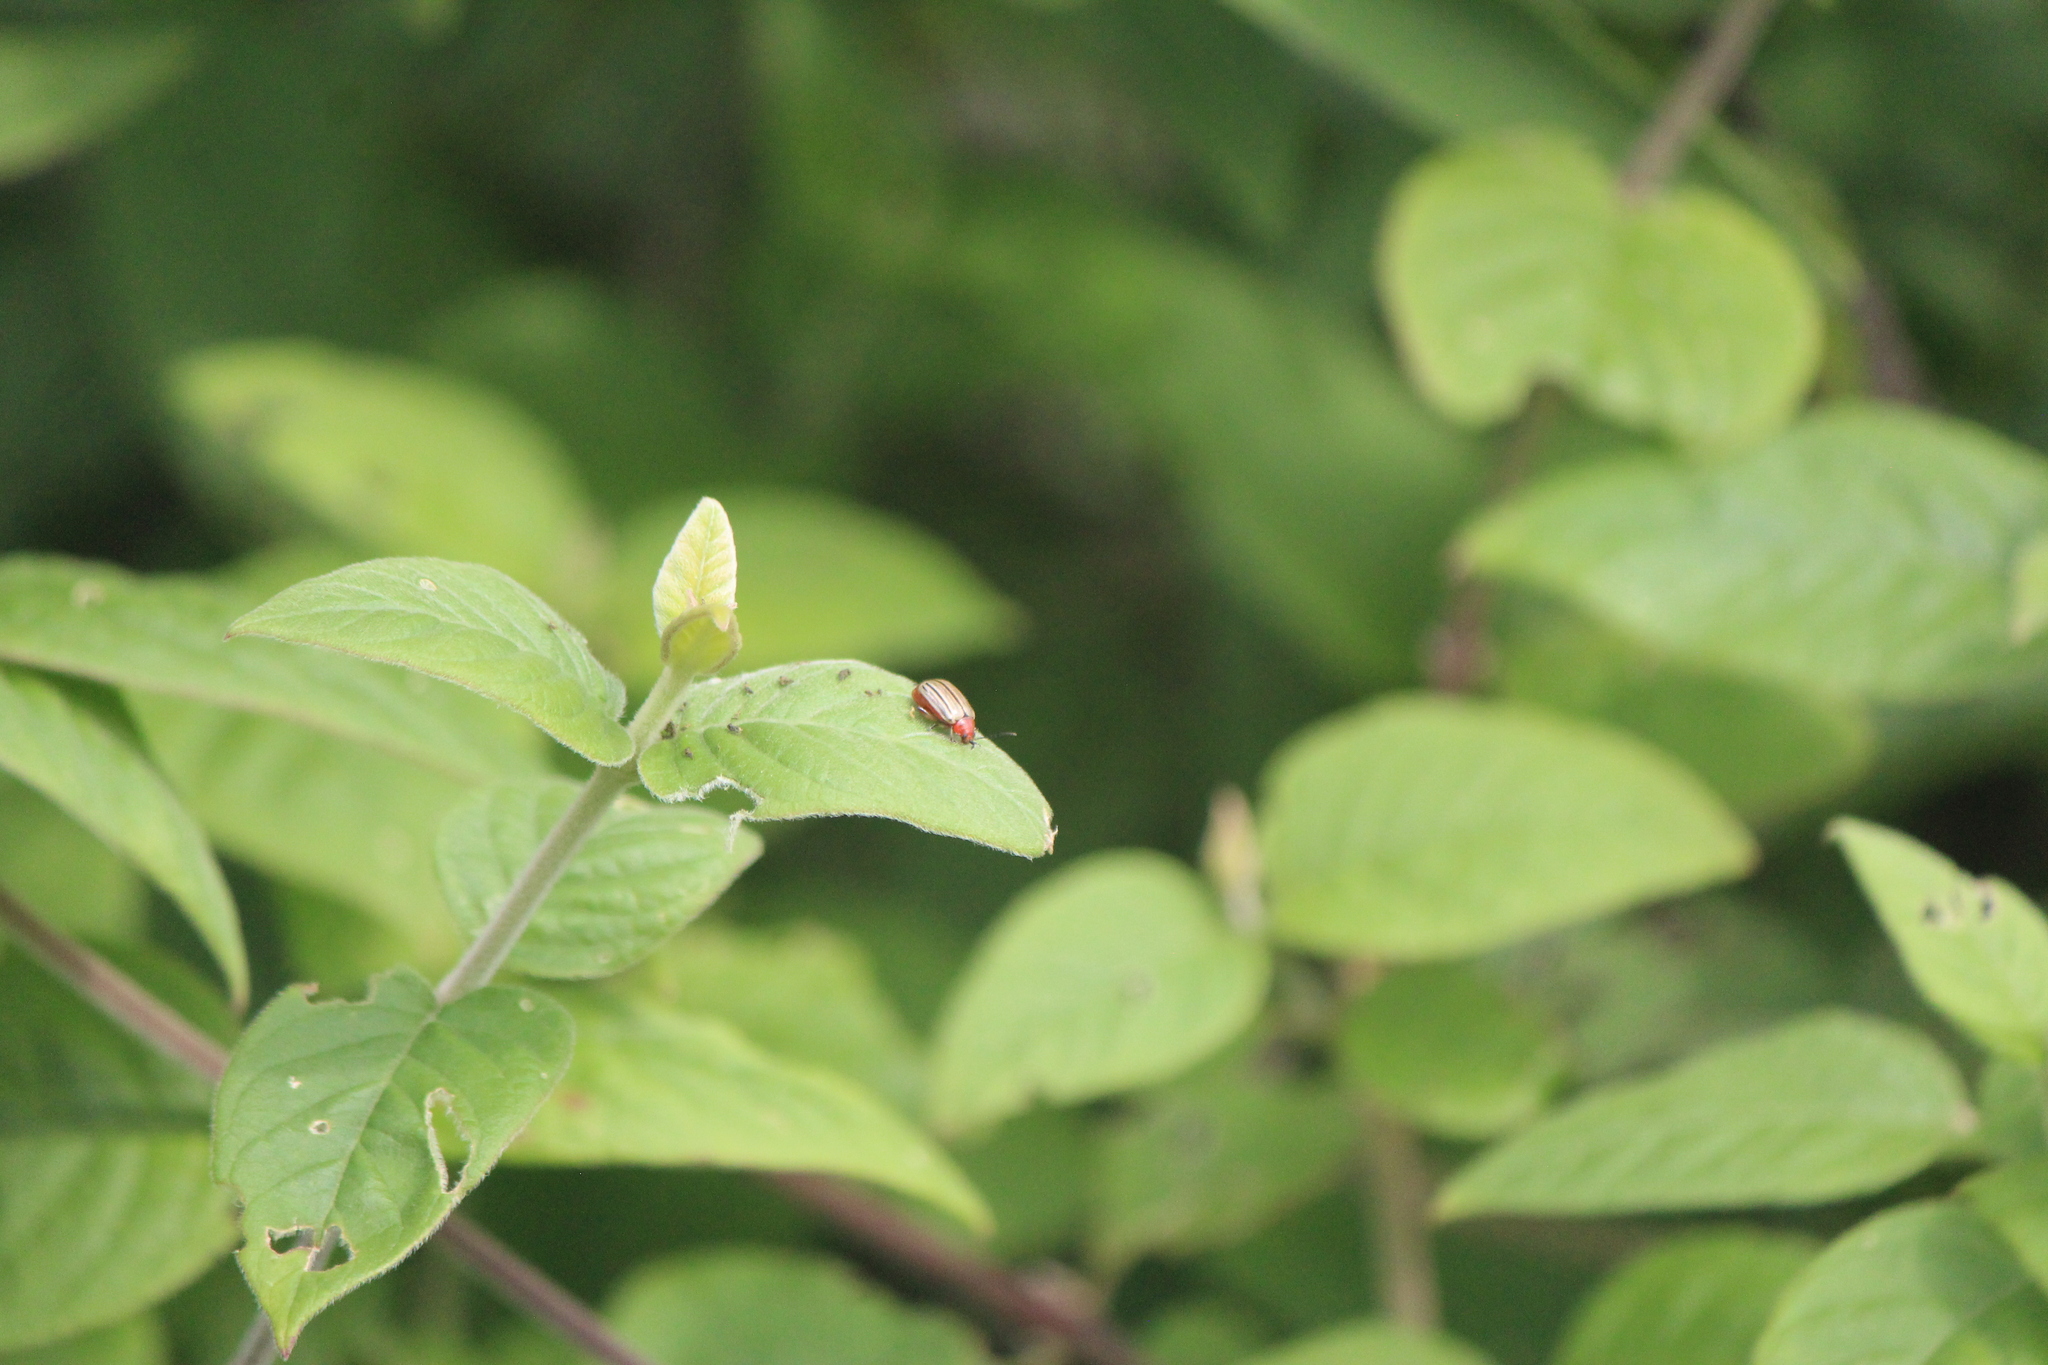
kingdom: Animalia
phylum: Arthropoda
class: Insecta
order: Coleoptera
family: Chrysomelidae
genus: Disonycha
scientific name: Disonycha
